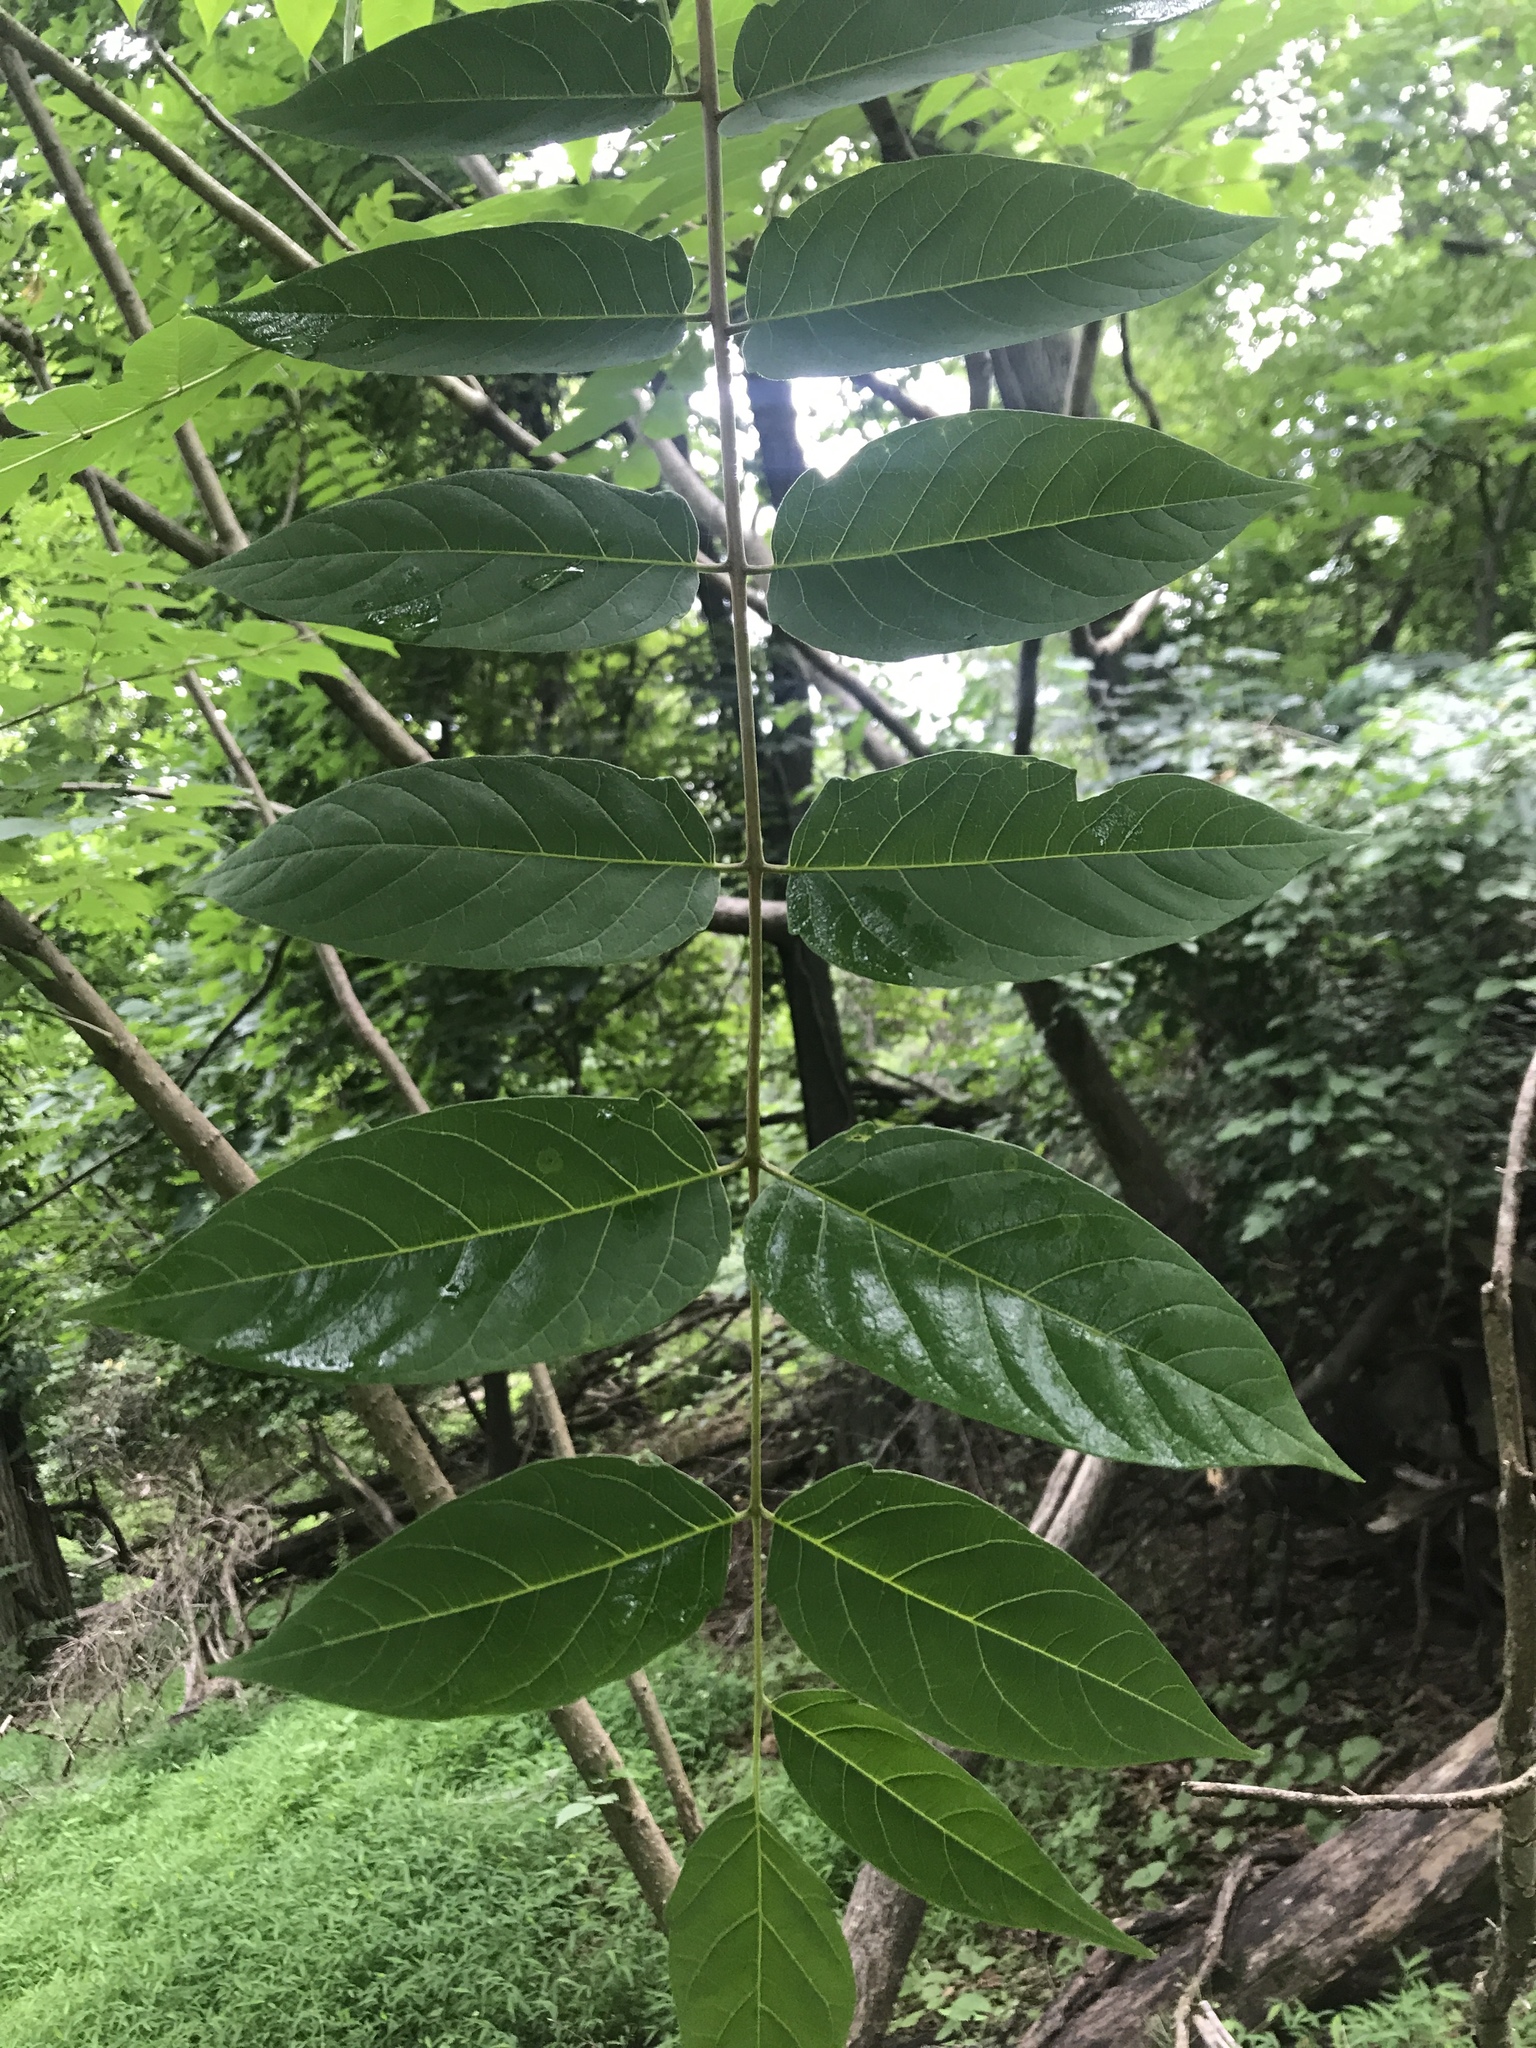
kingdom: Plantae
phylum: Tracheophyta
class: Magnoliopsida
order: Sapindales
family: Simaroubaceae
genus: Ailanthus
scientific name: Ailanthus altissima
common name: Tree-of-heaven
